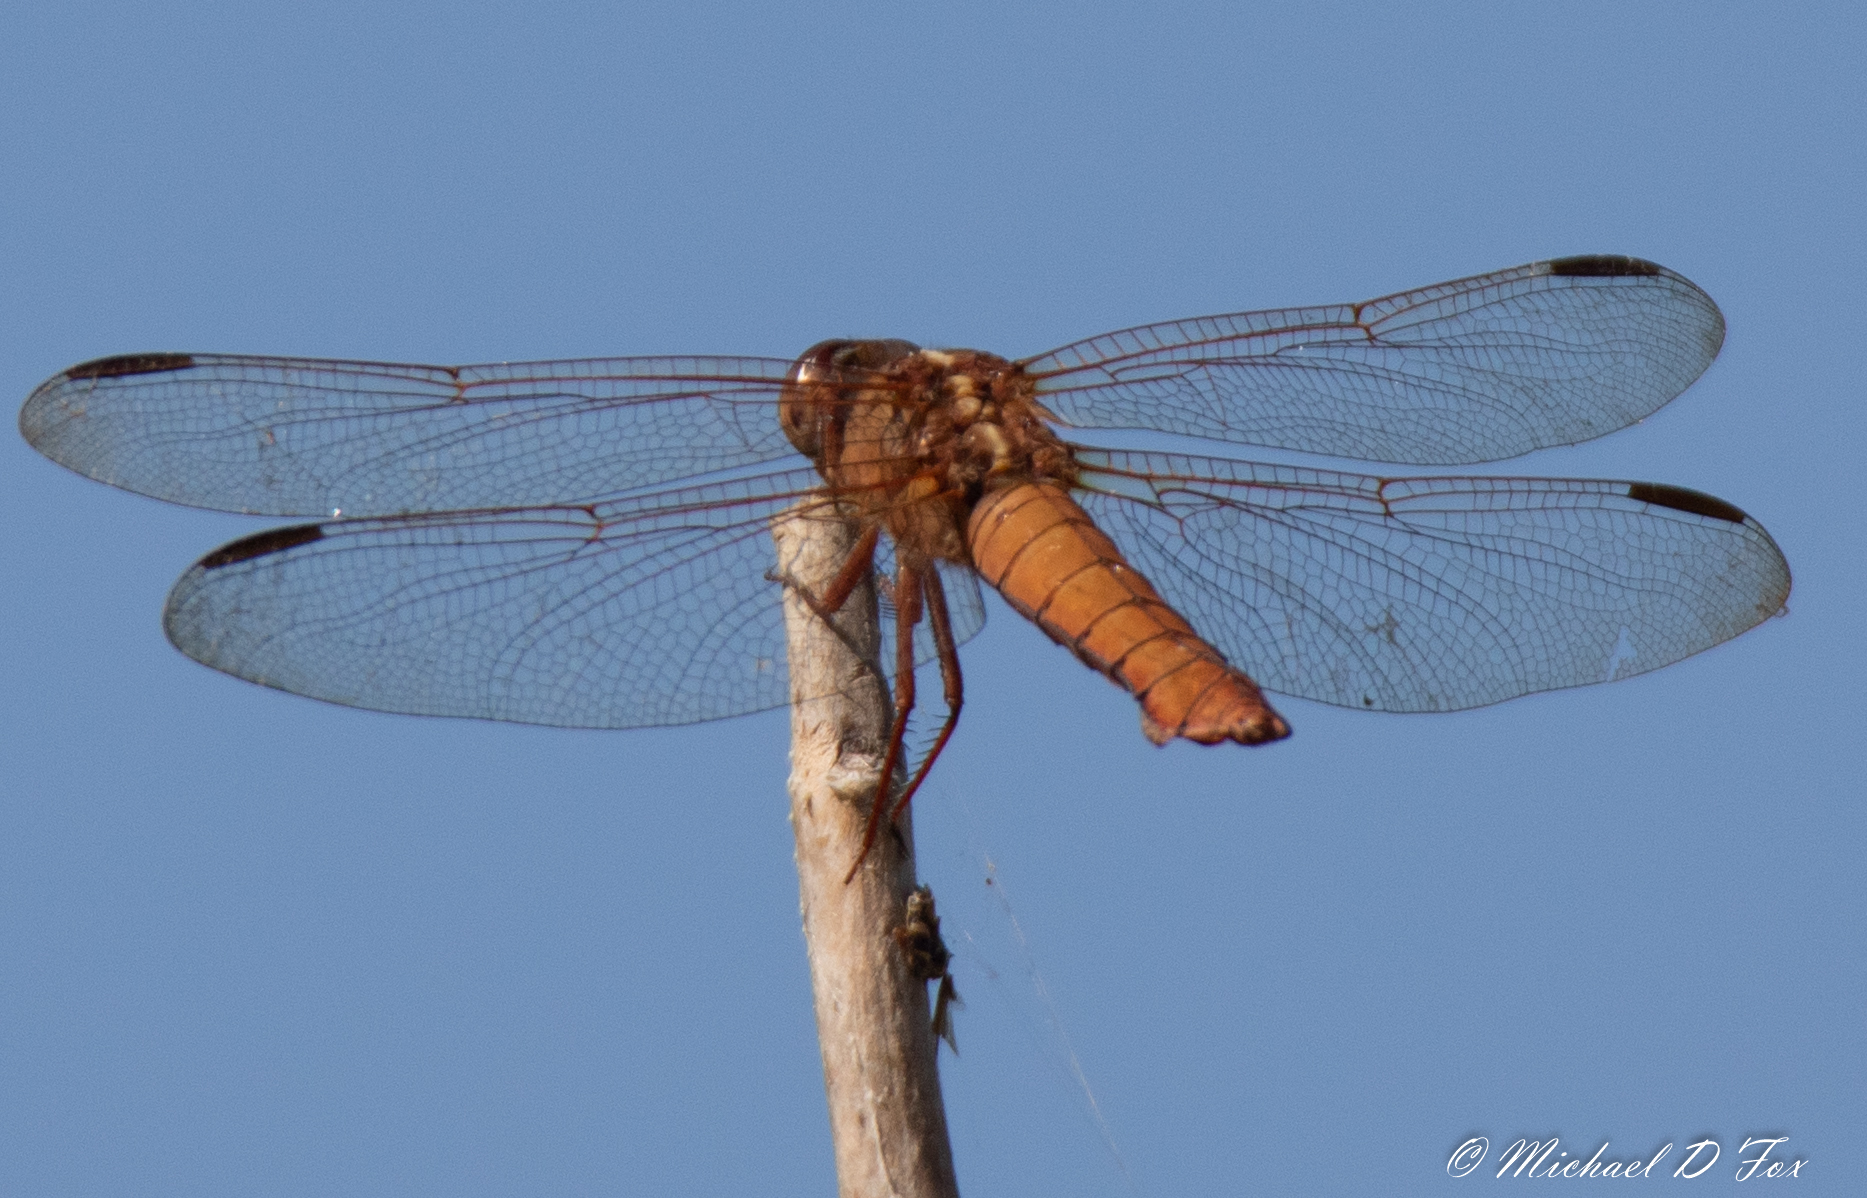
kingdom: Animalia
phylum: Arthropoda
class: Insecta
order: Odonata
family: Libellulidae
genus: Libellula
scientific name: Libellula croceipennis
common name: Neon skimmer
